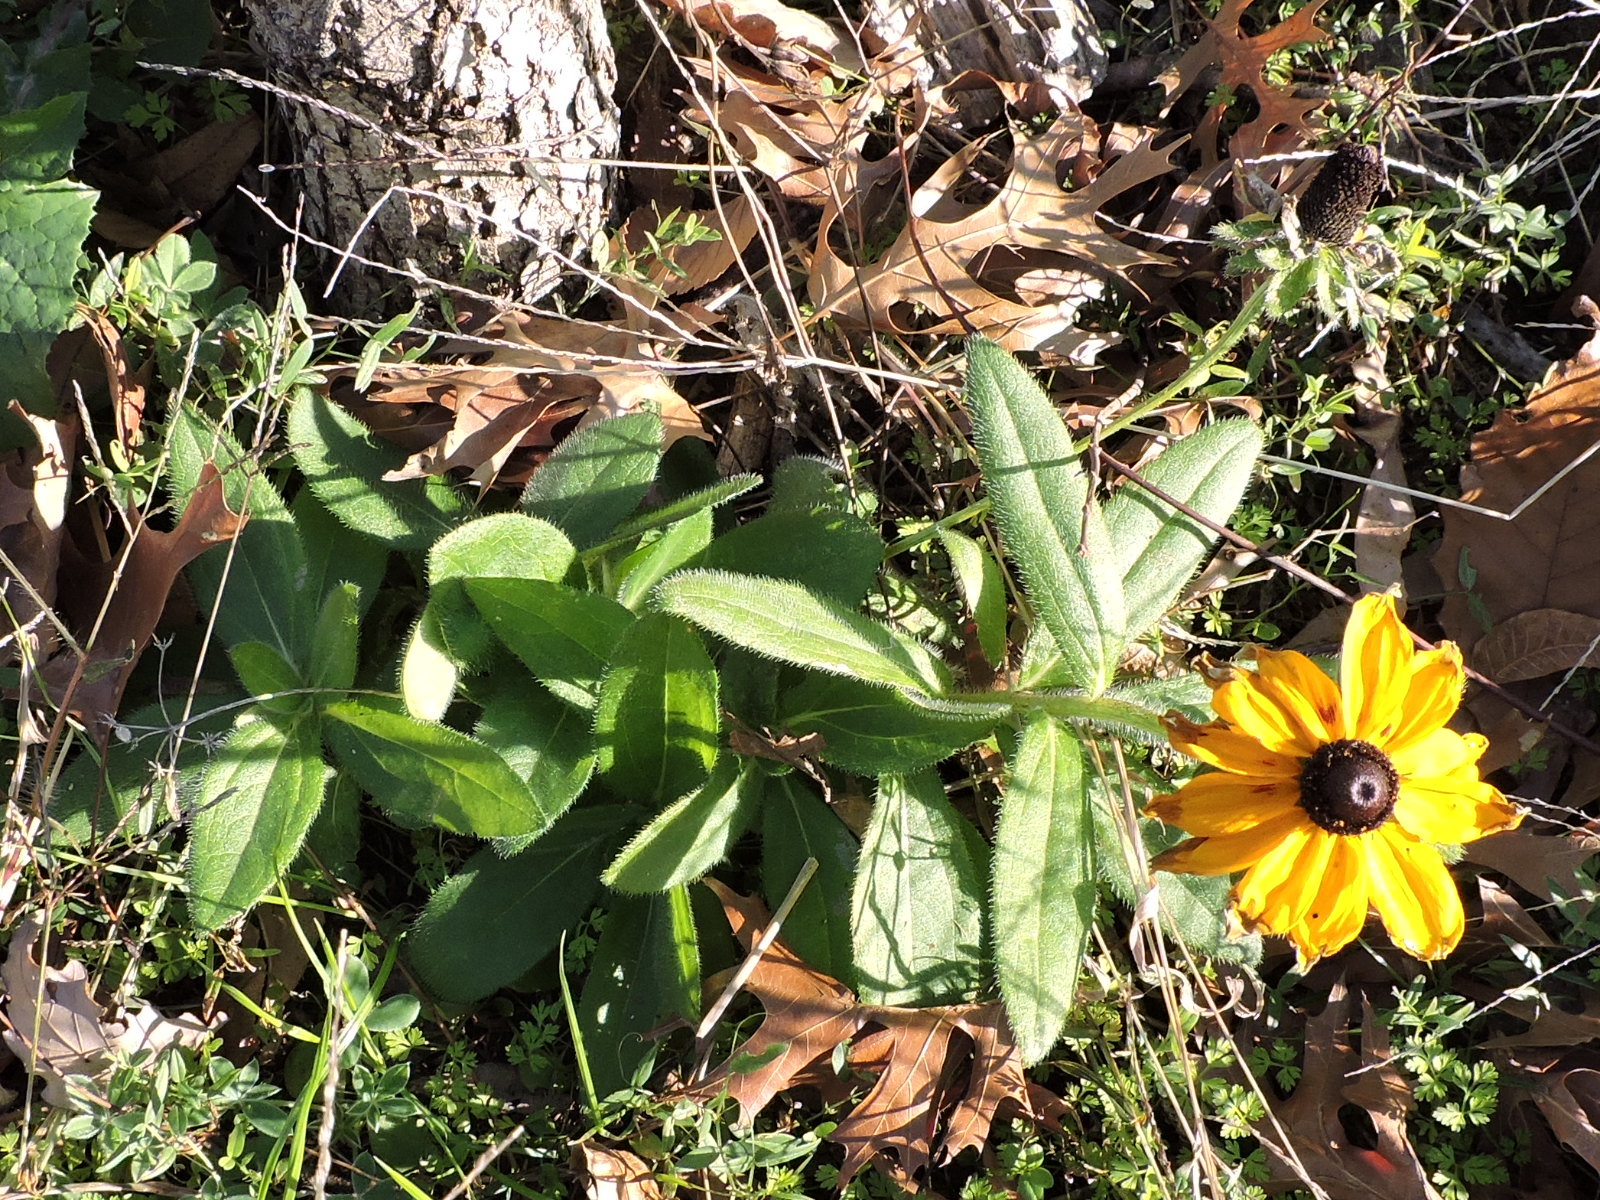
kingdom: Plantae
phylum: Tracheophyta
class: Magnoliopsida
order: Asterales
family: Asteraceae
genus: Rudbeckia
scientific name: Rudbeckia hirta
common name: Black-eyed-susan
